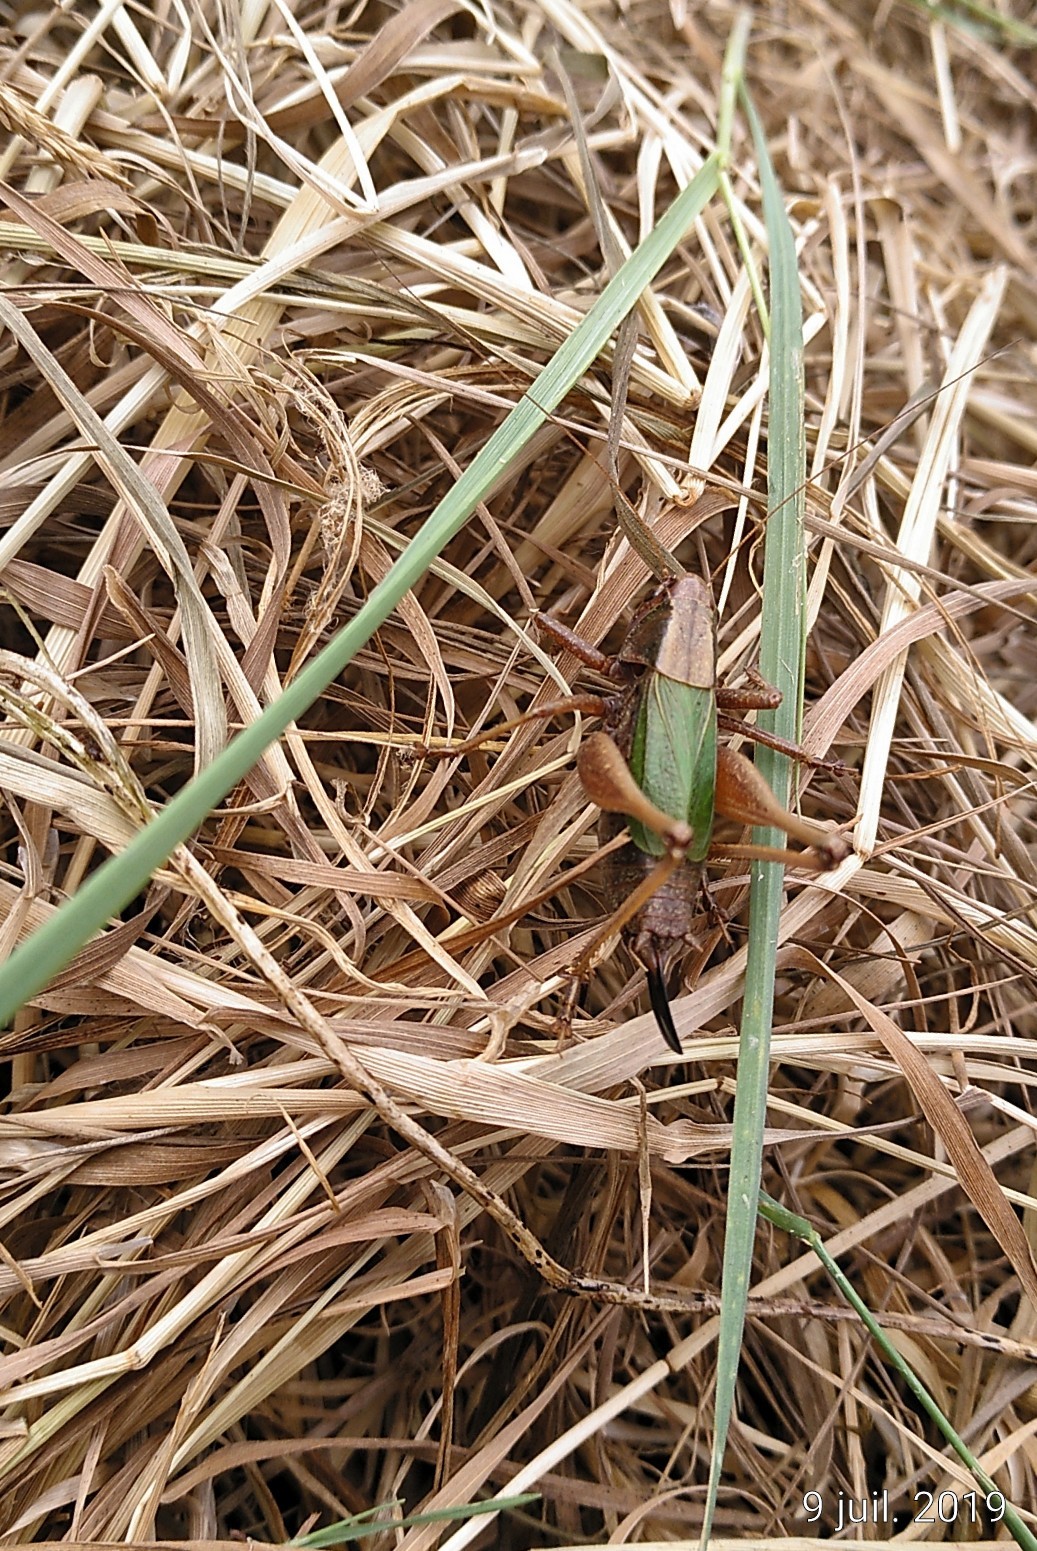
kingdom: Animalia
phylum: Arthropoda
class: Insecta
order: Orthoptera
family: Tettigoniidae
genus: Zeuneriana
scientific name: Zeuneriana abbreviata
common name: Basque bush-cricket
